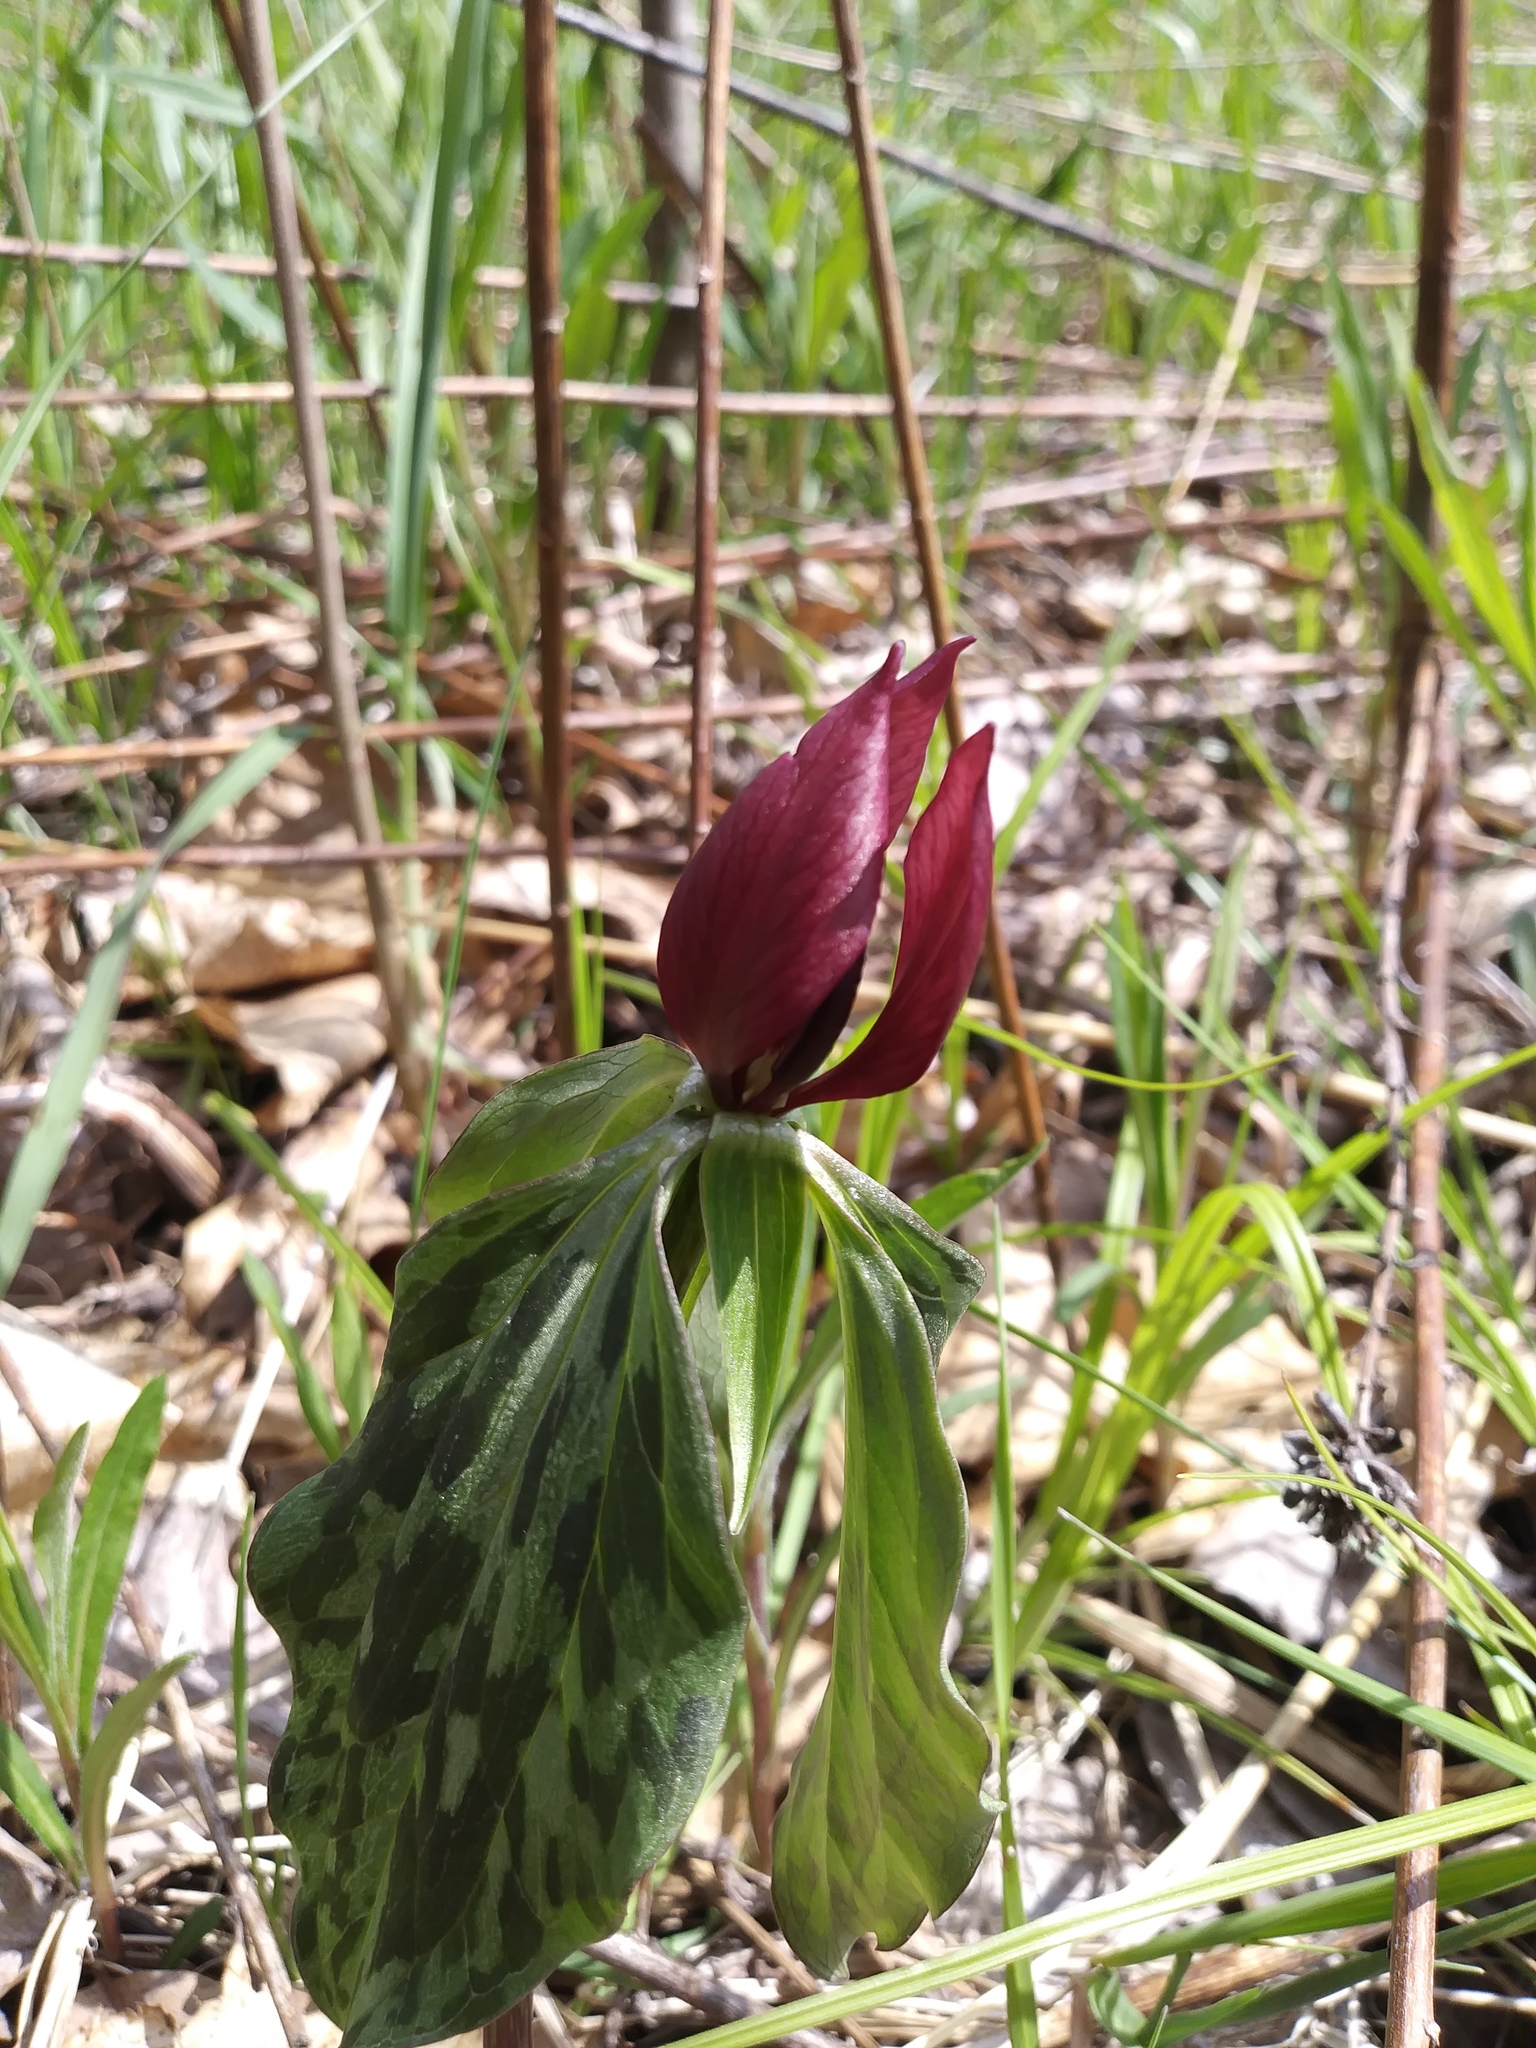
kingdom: Plantae
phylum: Tracheophyta
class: Liliopsida
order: Liliales
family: Melanthiaceae
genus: Trillium
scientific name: Trillium recurvatum
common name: Bloody butcher
